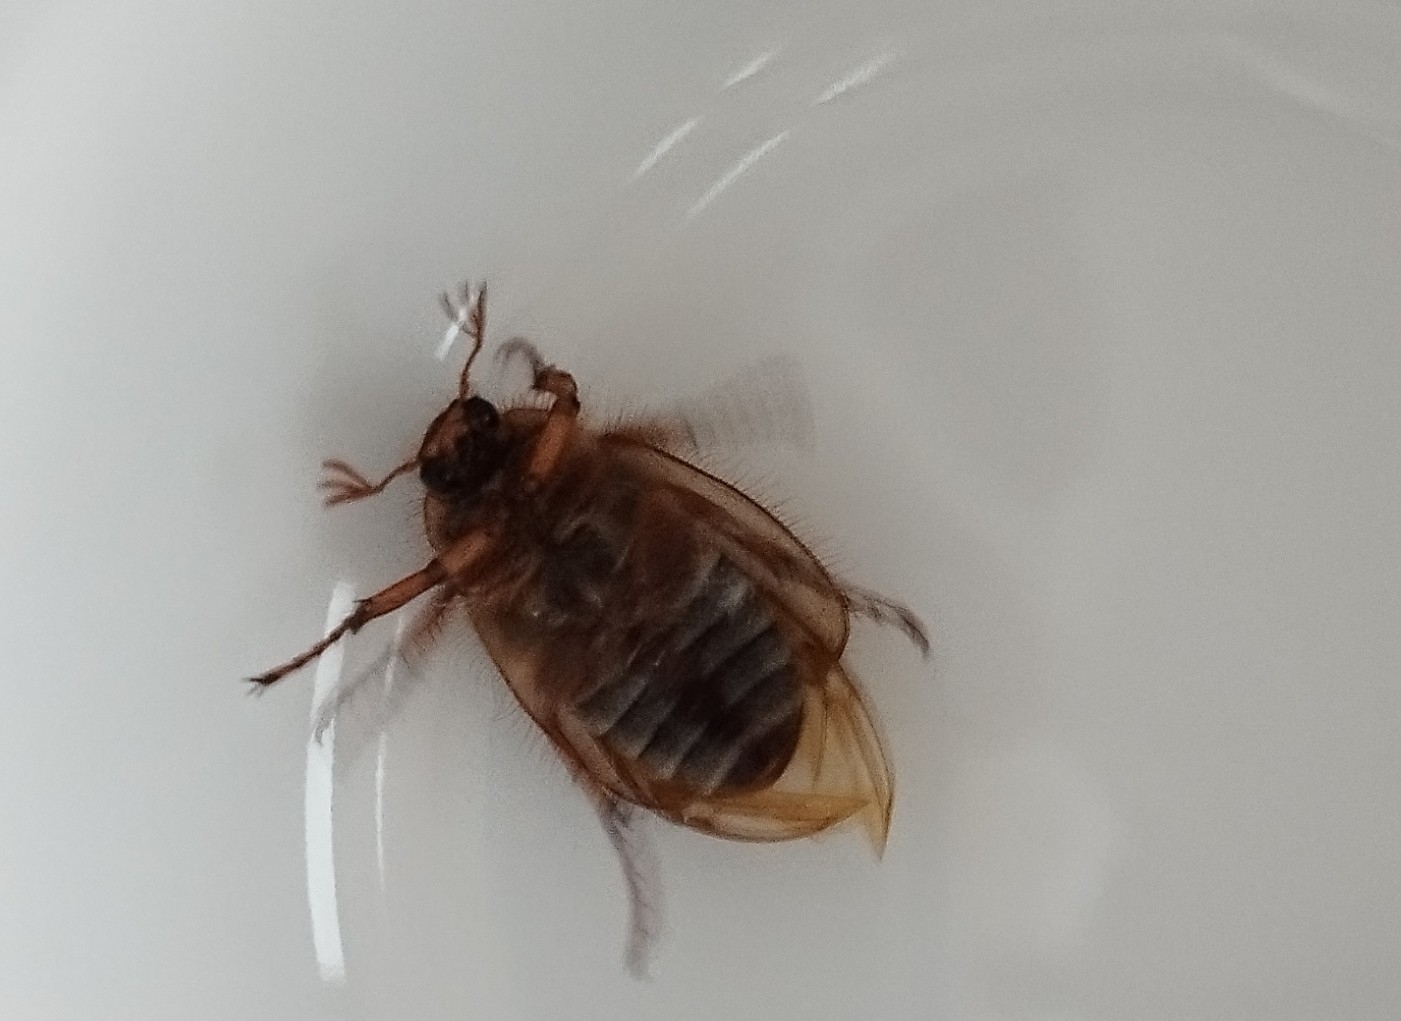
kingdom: Animalia
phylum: Arthropoda
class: Insecta
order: Coleoptera
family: Scarabaeidae
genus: Amphimallon
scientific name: Amphimallon solstitiale
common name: Summer chafer
